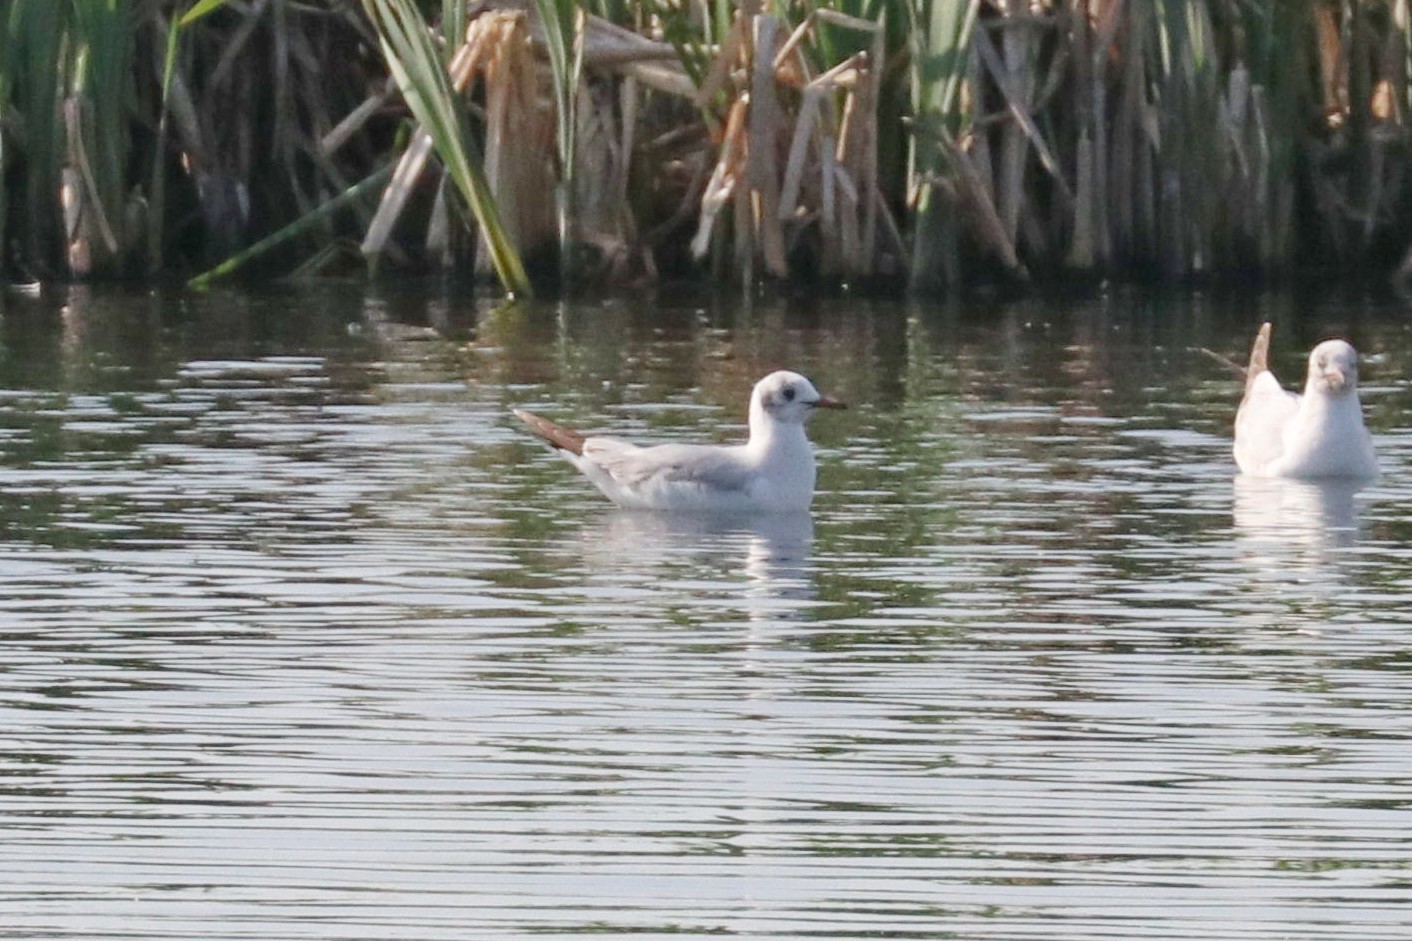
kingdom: Animalia
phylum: Chordata
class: Aves
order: Charadriiformes
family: Laridae
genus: Chroicocephalus
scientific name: Chroicocephalus ridibundus
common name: Black-headed gull
